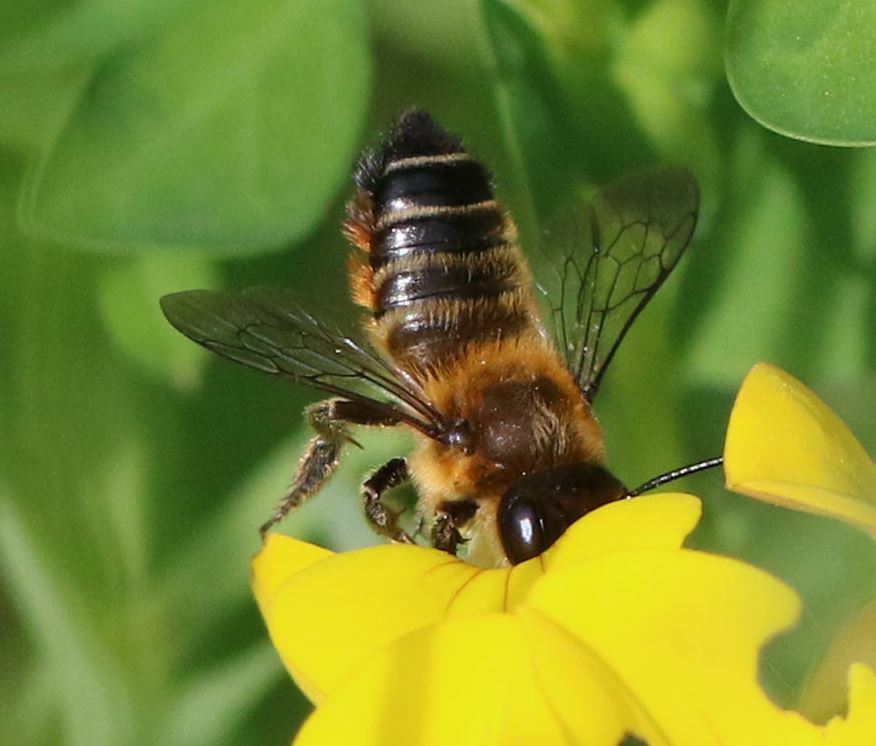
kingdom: Animalia
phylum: Arthropoda
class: Insecta
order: Hymenoptera
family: Megachilidae
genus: Megachile
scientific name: Megachile willughbiella
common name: Willughby's leafcutter bee
